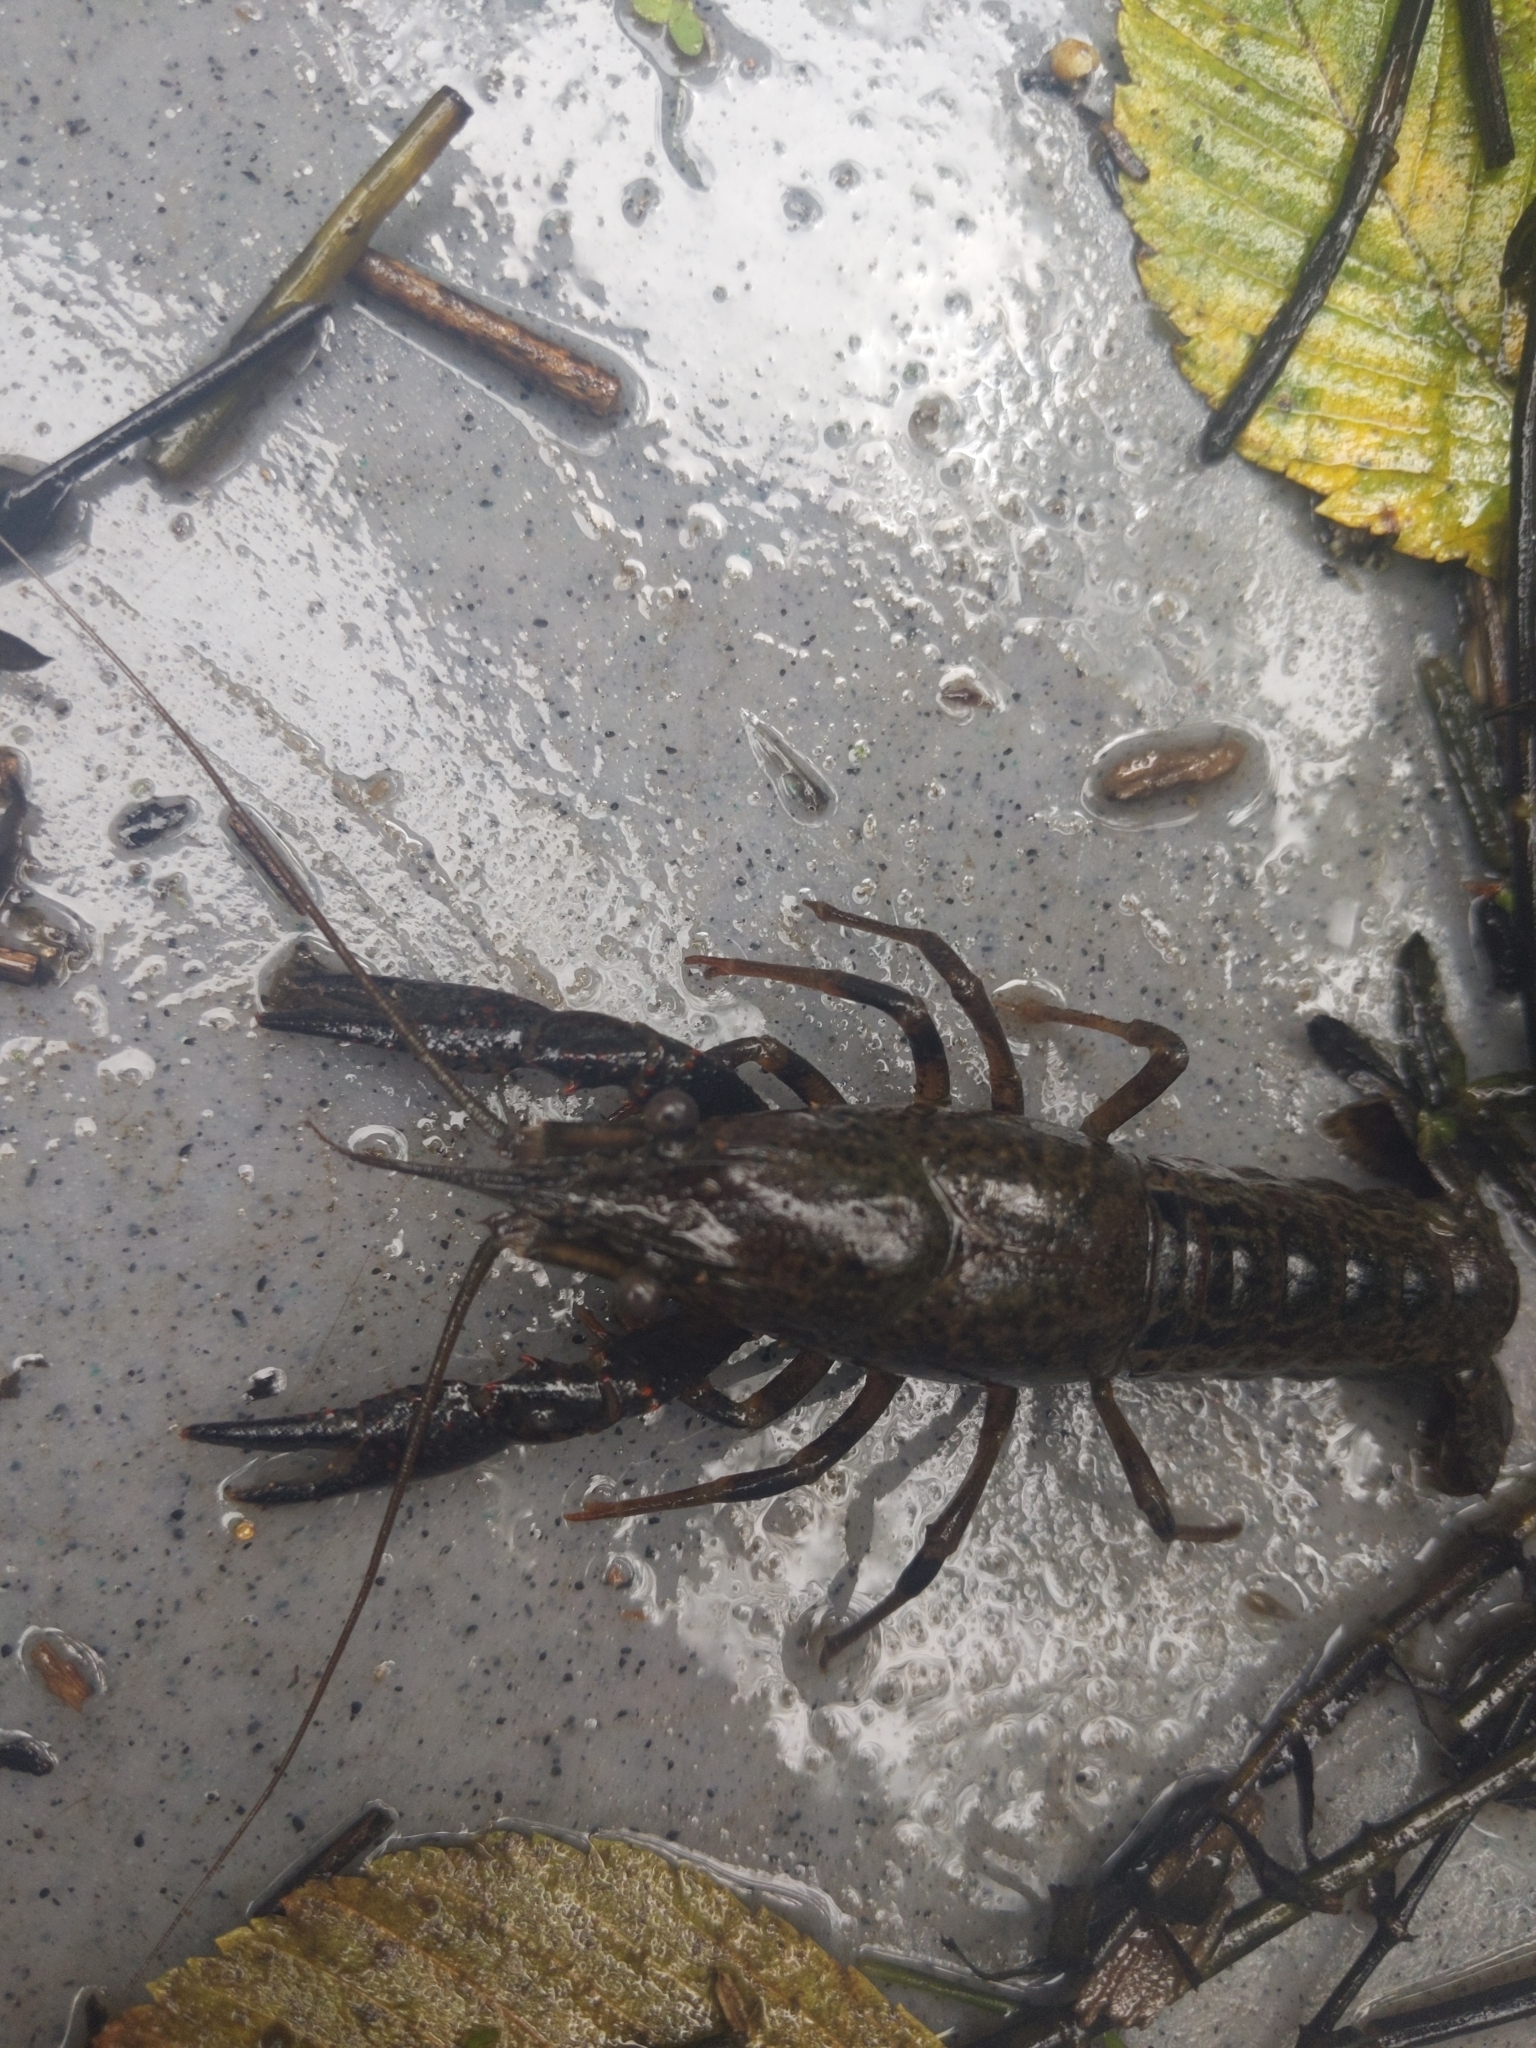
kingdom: Animalia
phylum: Arthropoda
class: Malacostraca
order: Decapoda
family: Cambaridae
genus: Procambarus
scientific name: Procambarus clarkii
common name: Red swamp crayfish
